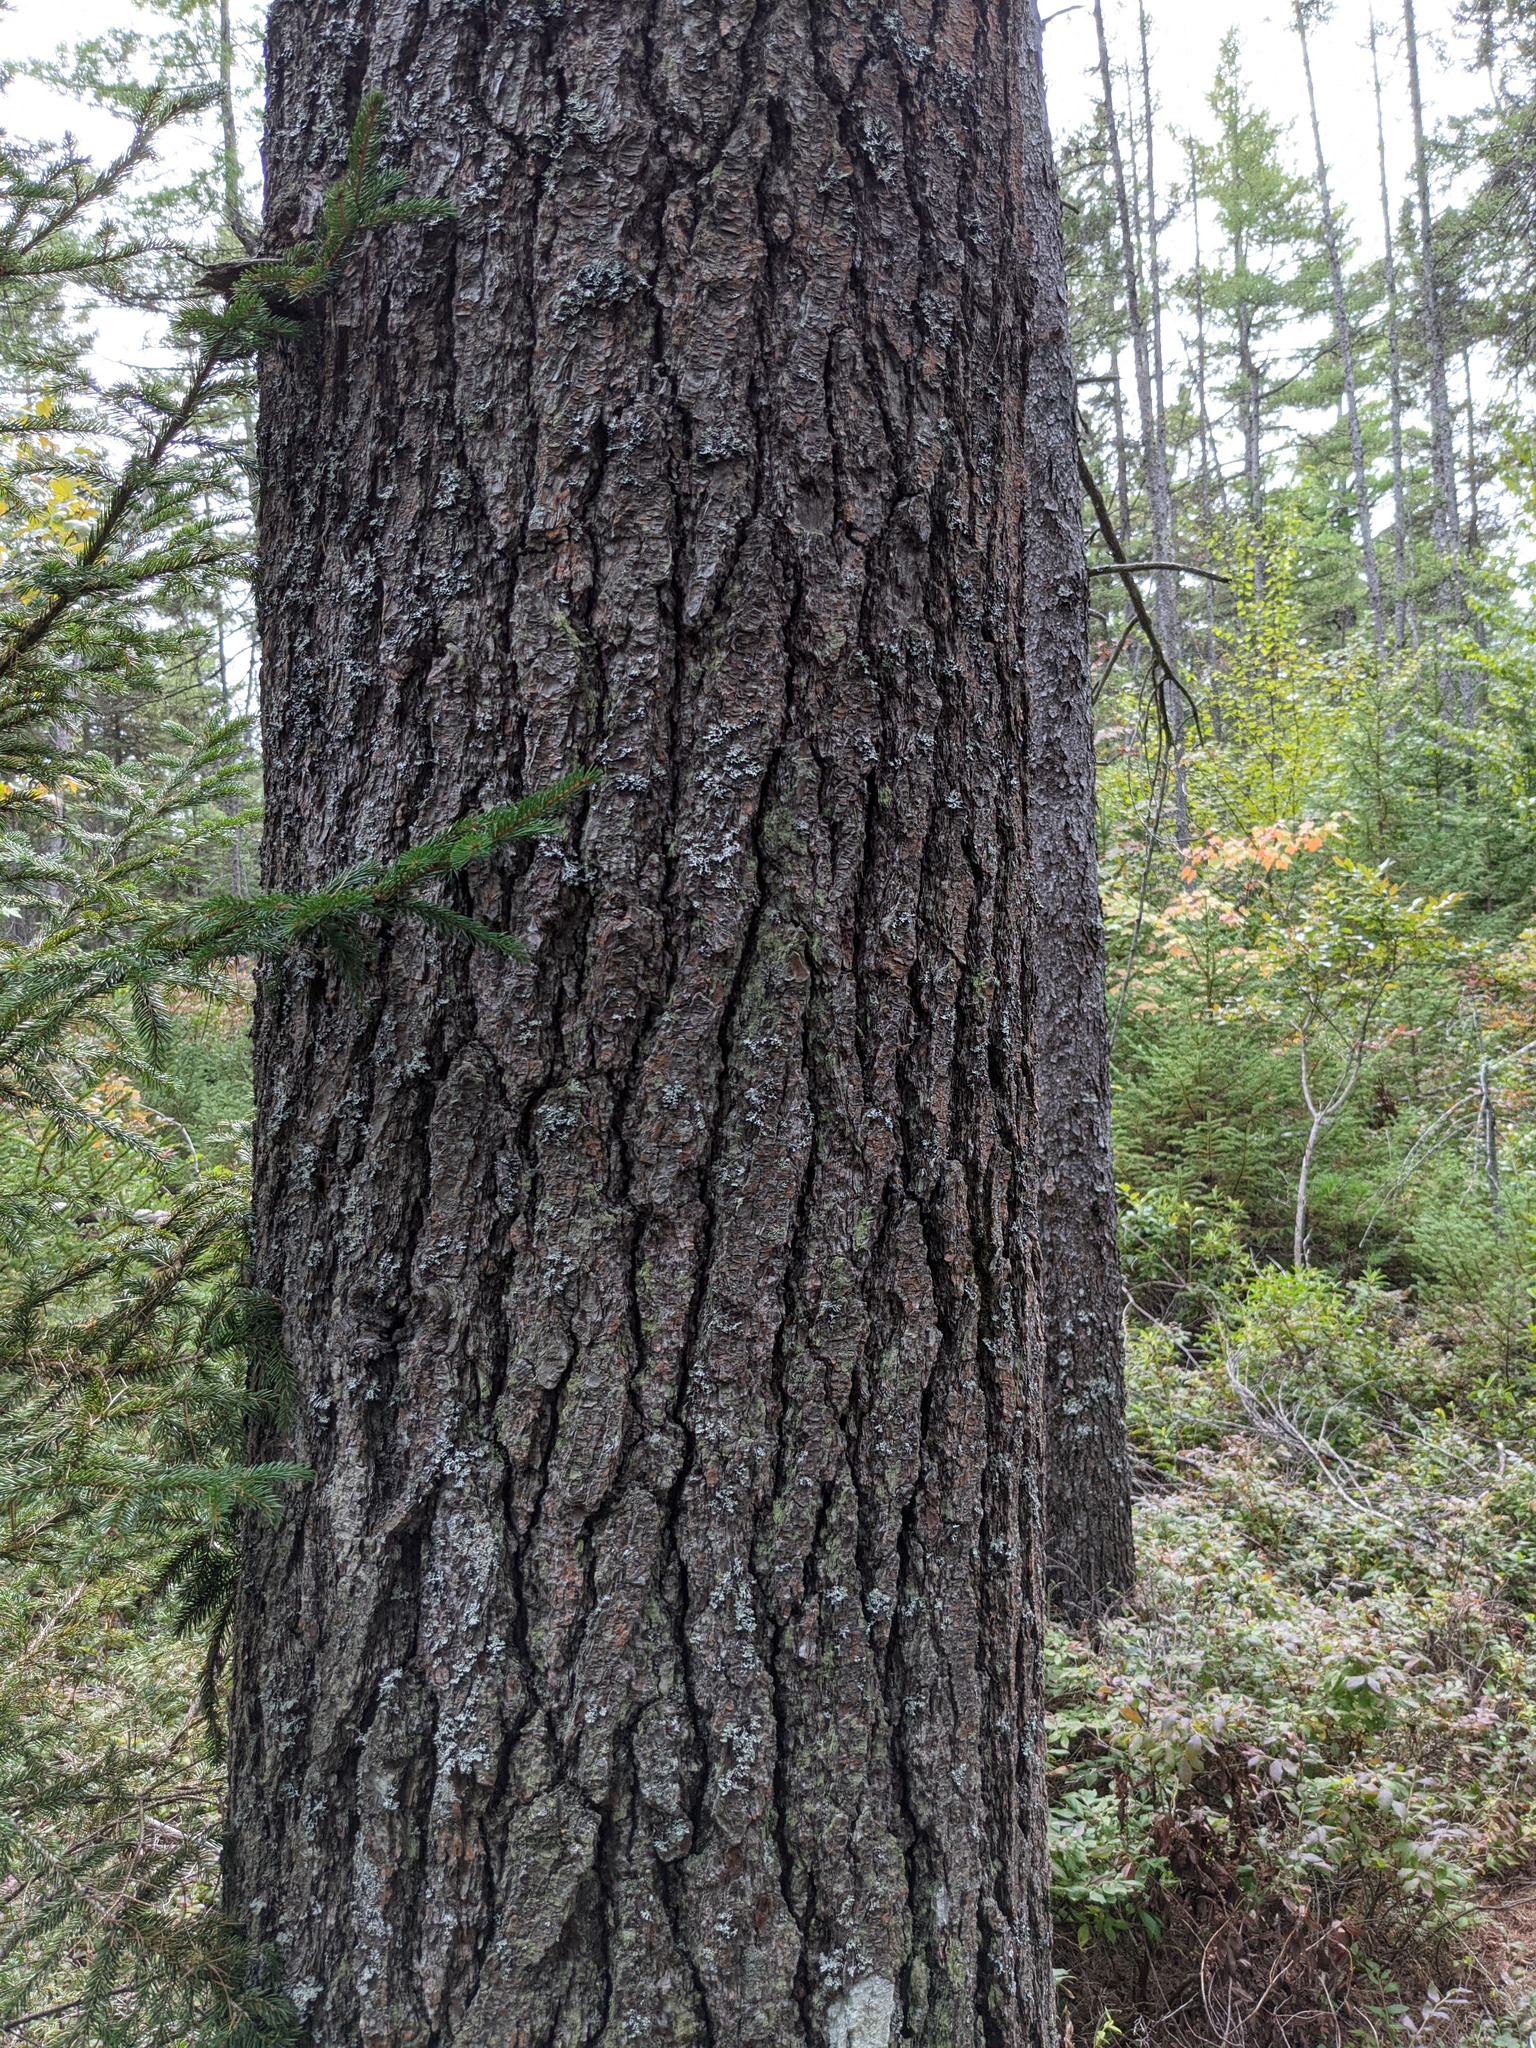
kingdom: Plantae
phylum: Tracheophyta
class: Pinopsida
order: Pinales
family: Pinaceae
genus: Pinus
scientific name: Pinus strobus
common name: Weymouth pine
